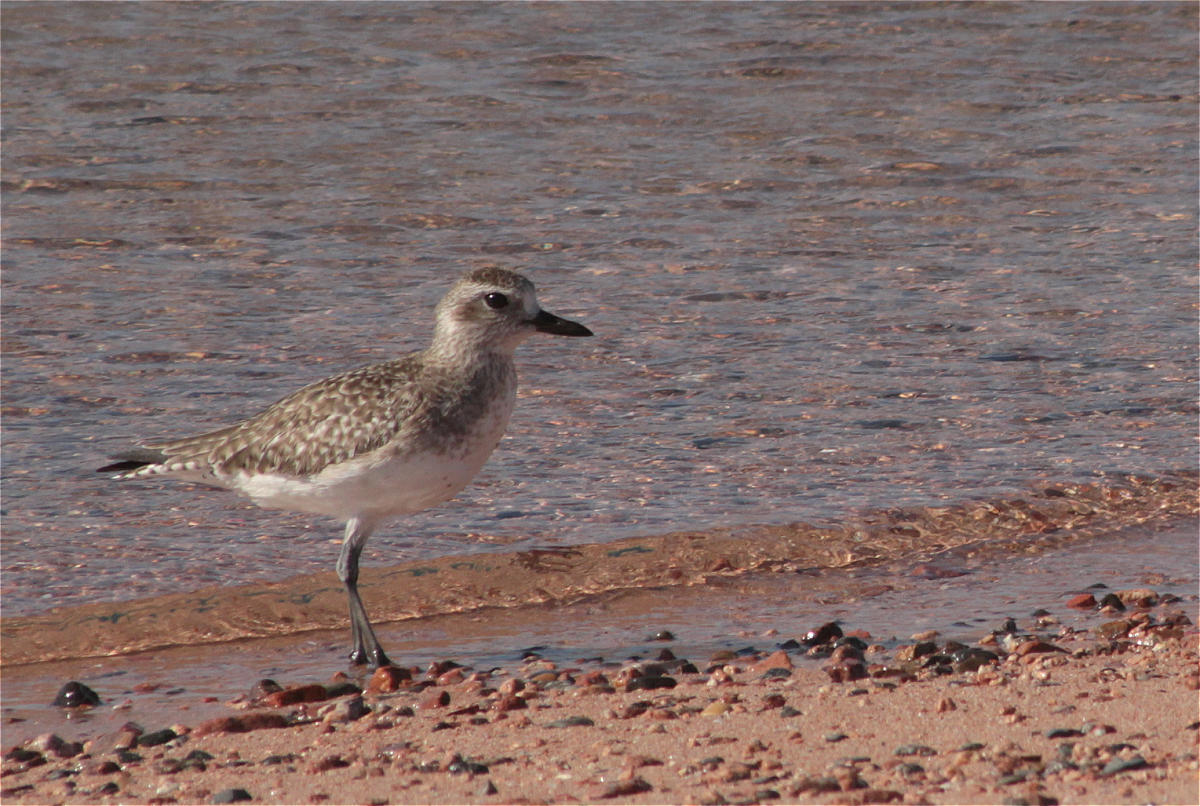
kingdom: Animalia
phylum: Chordata
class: Aves
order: Charadriiformes
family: Charadriidae
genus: Pluvialis
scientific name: Pluvialis squatarola
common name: Grey plover
